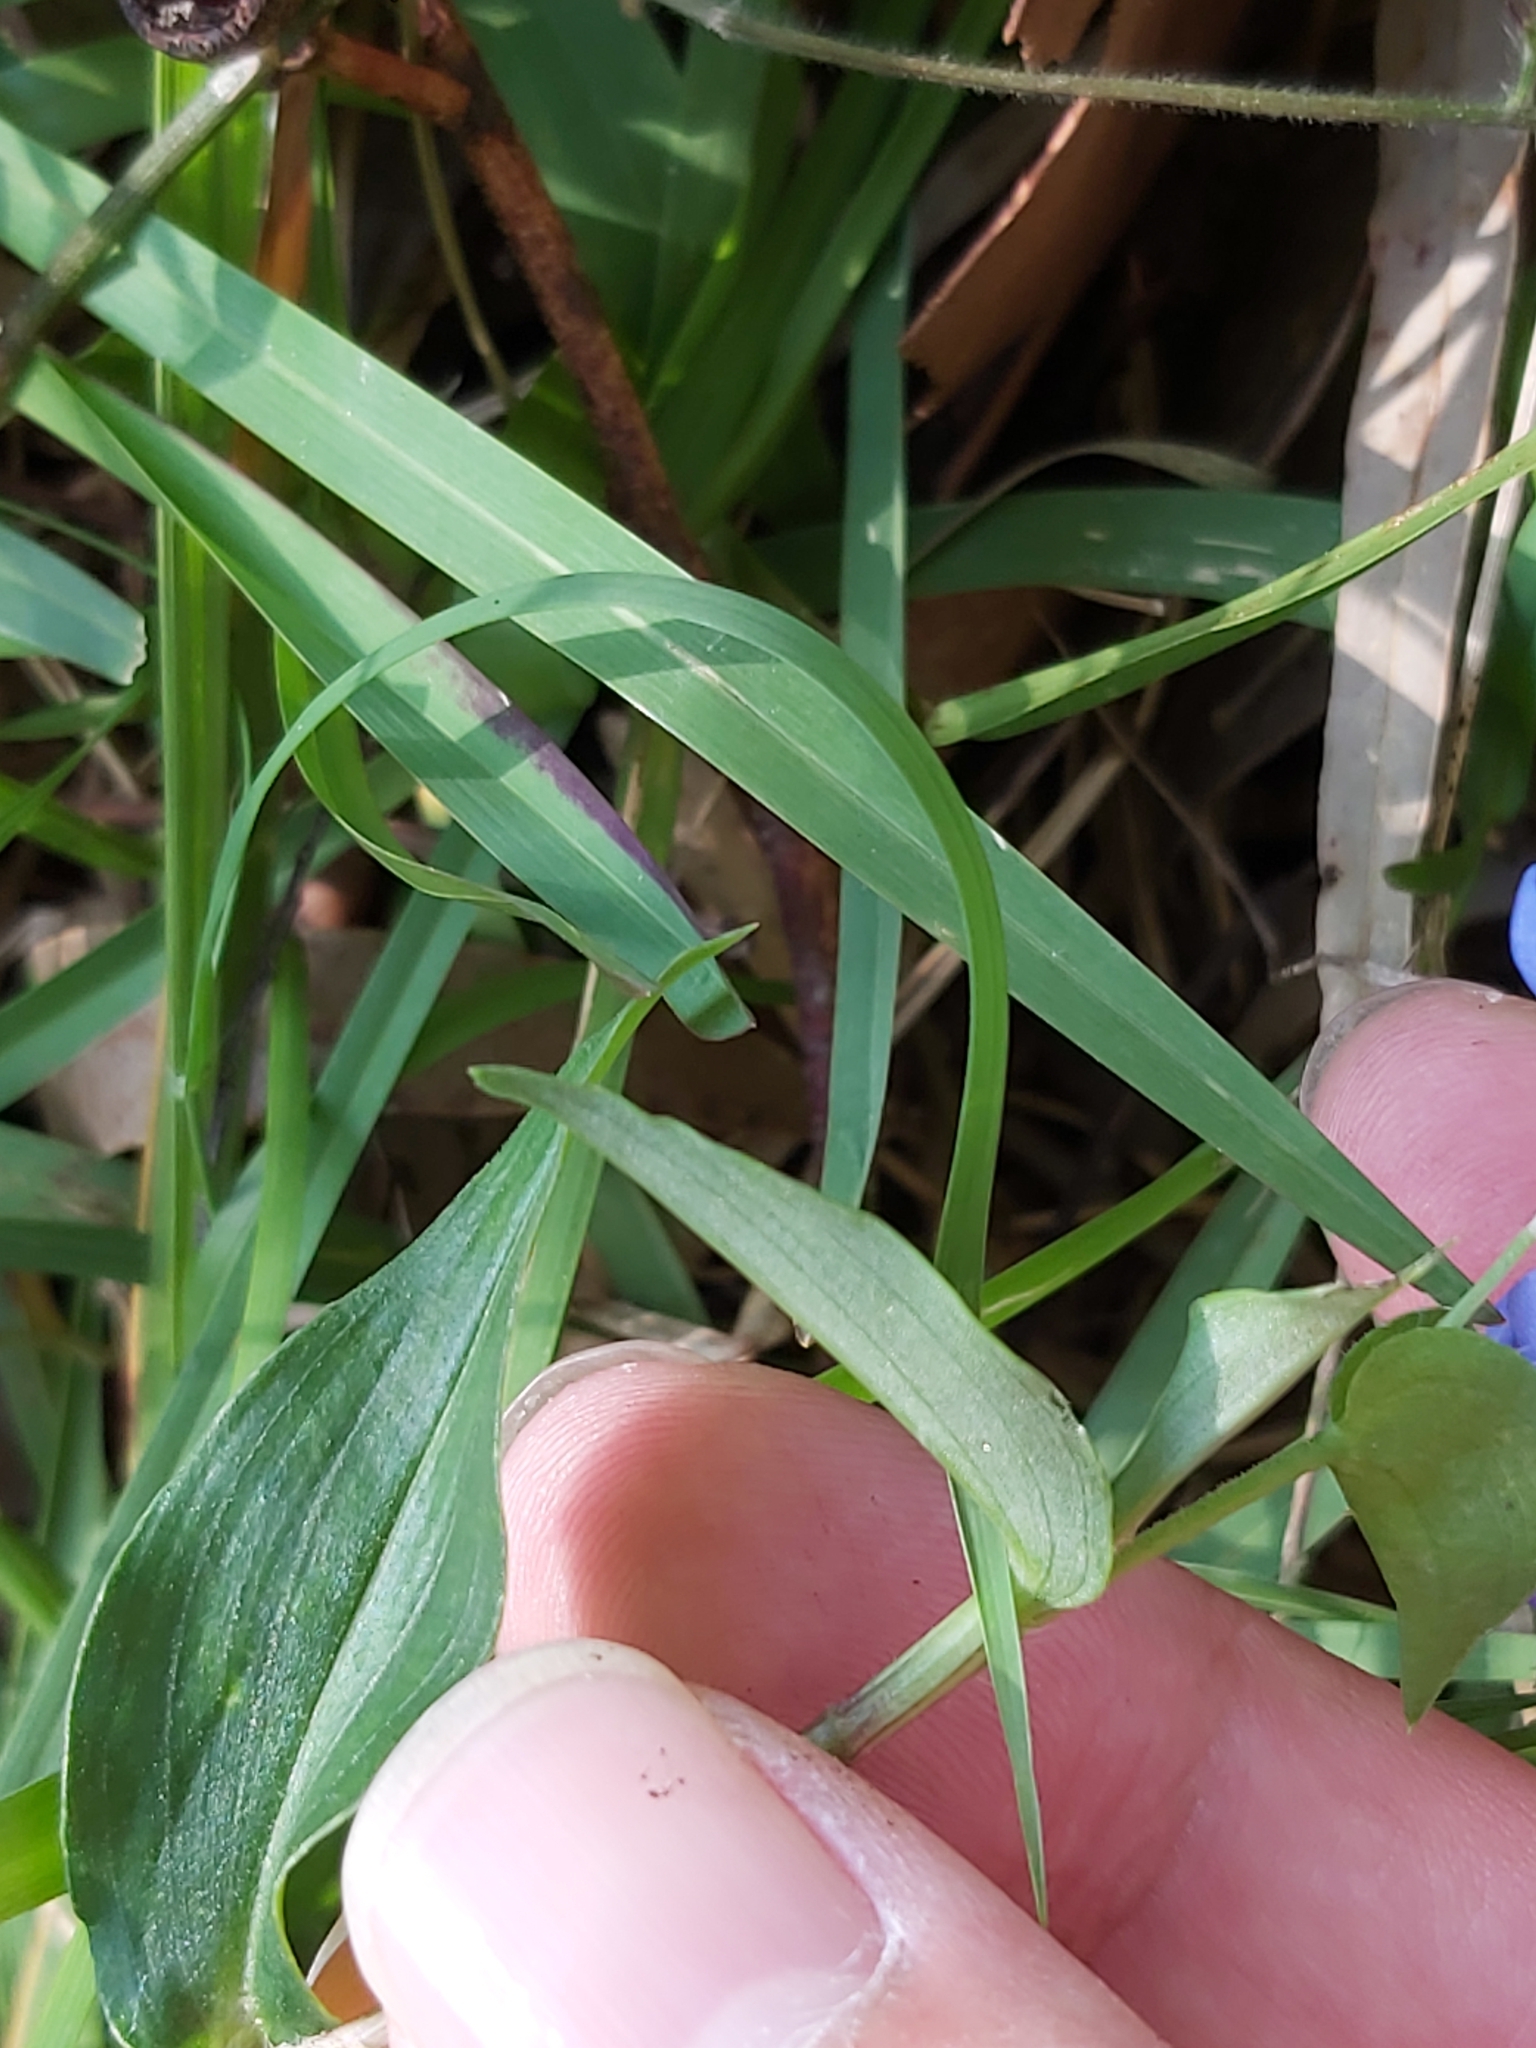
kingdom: Plantae
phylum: Tracheophyta
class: Liliopsida
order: Commelinales
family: Commelinaceae
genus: Commelina
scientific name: Commelina cyanea
